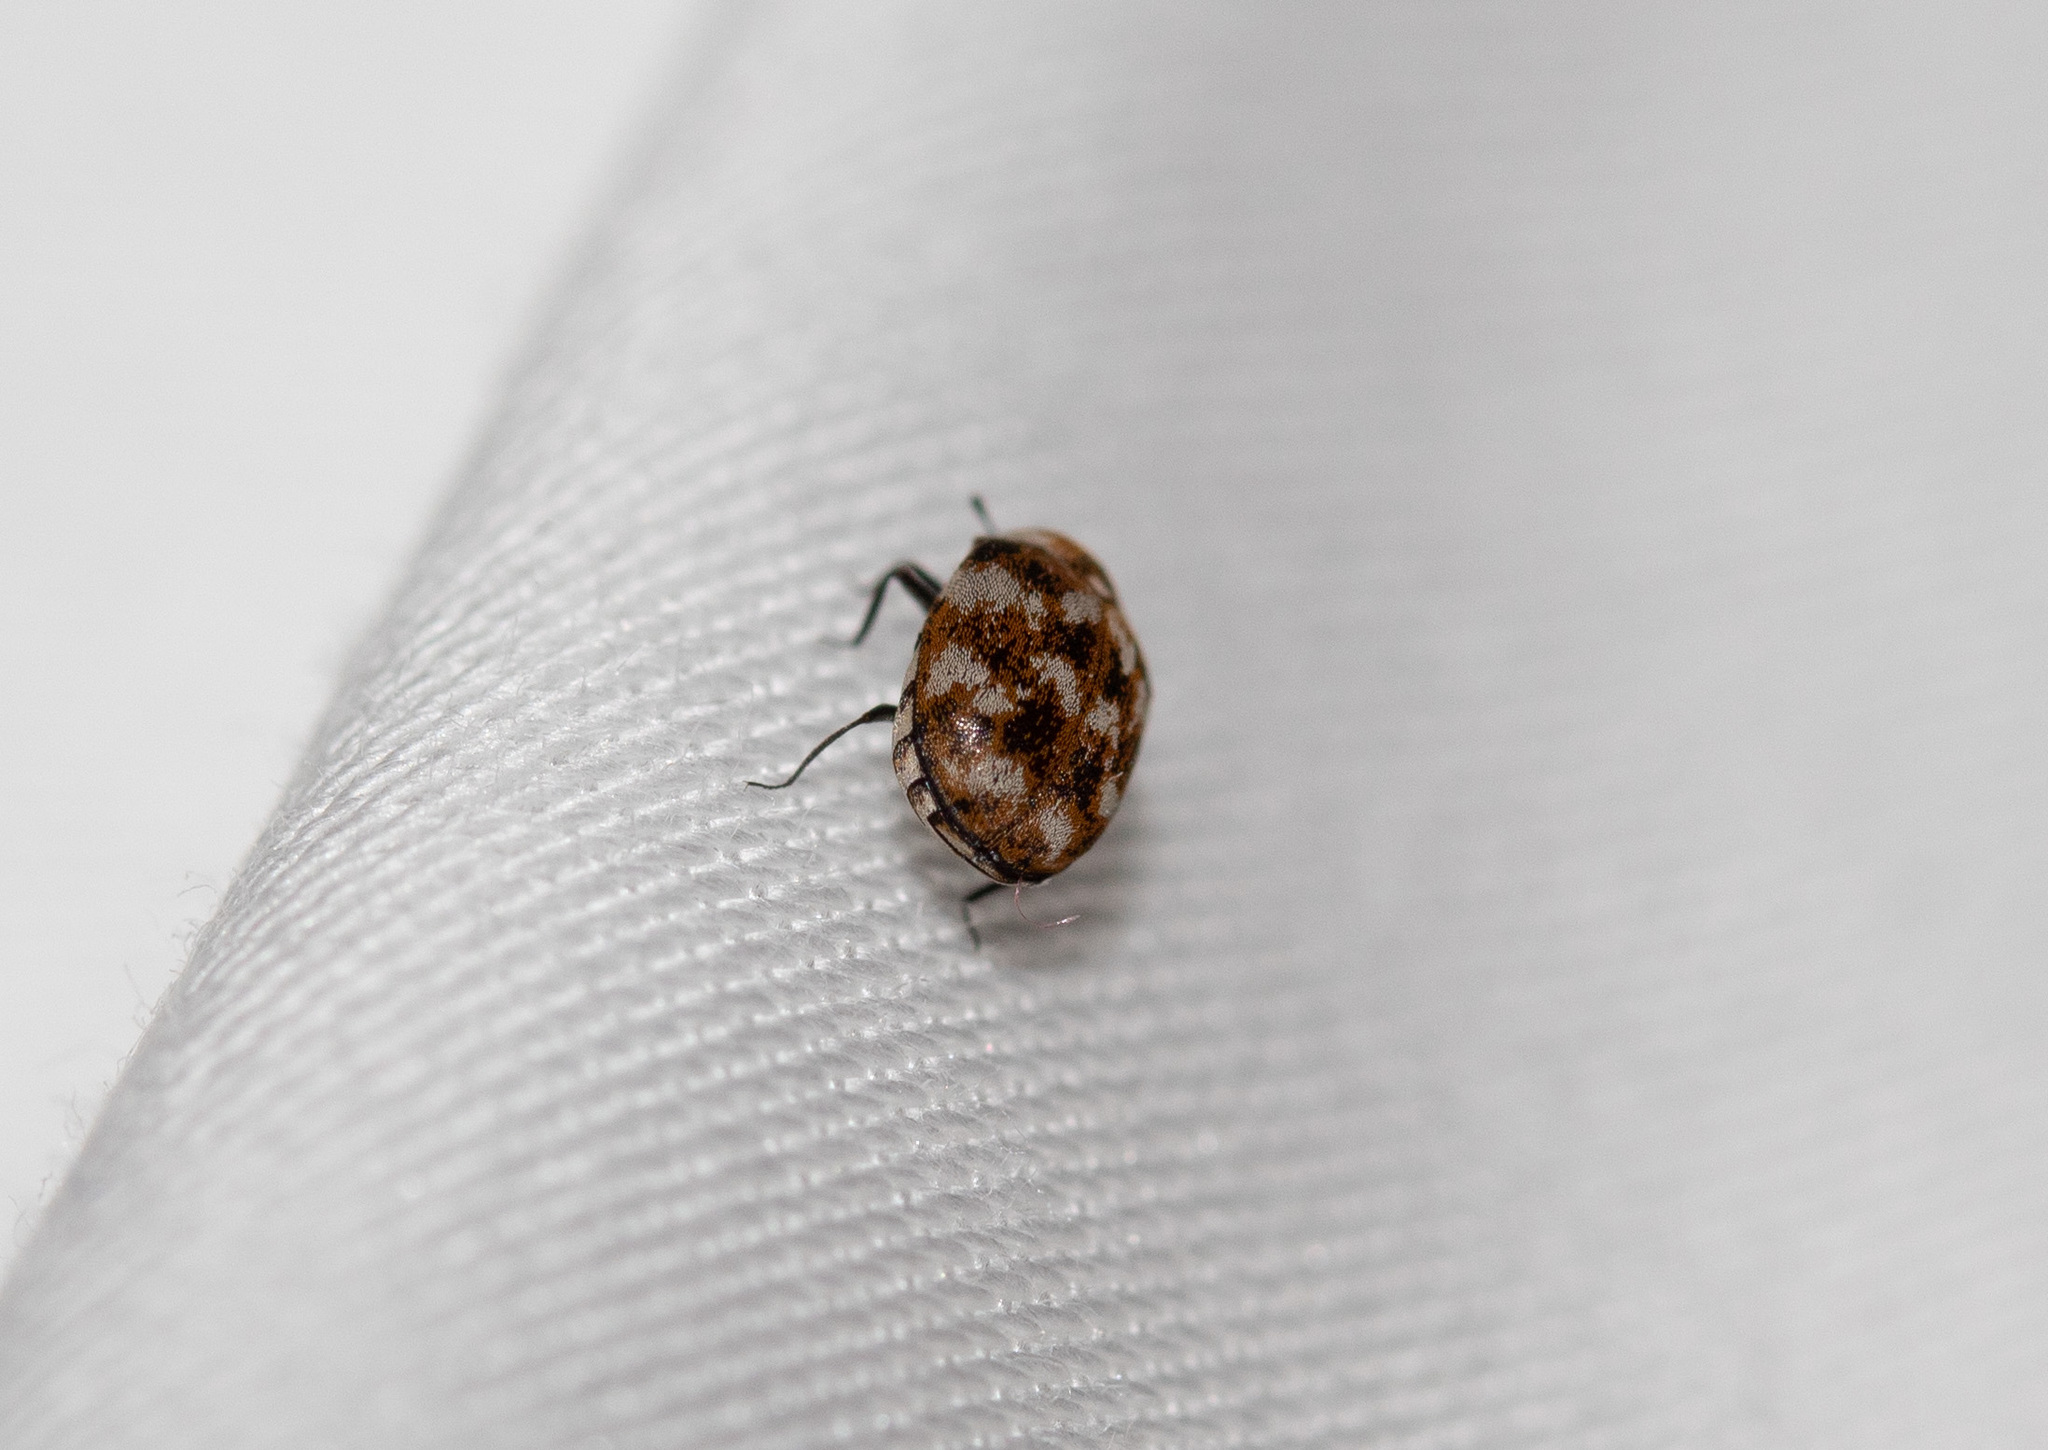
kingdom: Animalia
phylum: Arthropoda
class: Insecta
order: Coleoptera
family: Dermestidae
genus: Anthrenus
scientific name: Anthrenus verbasci
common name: Varied carpet beetle
